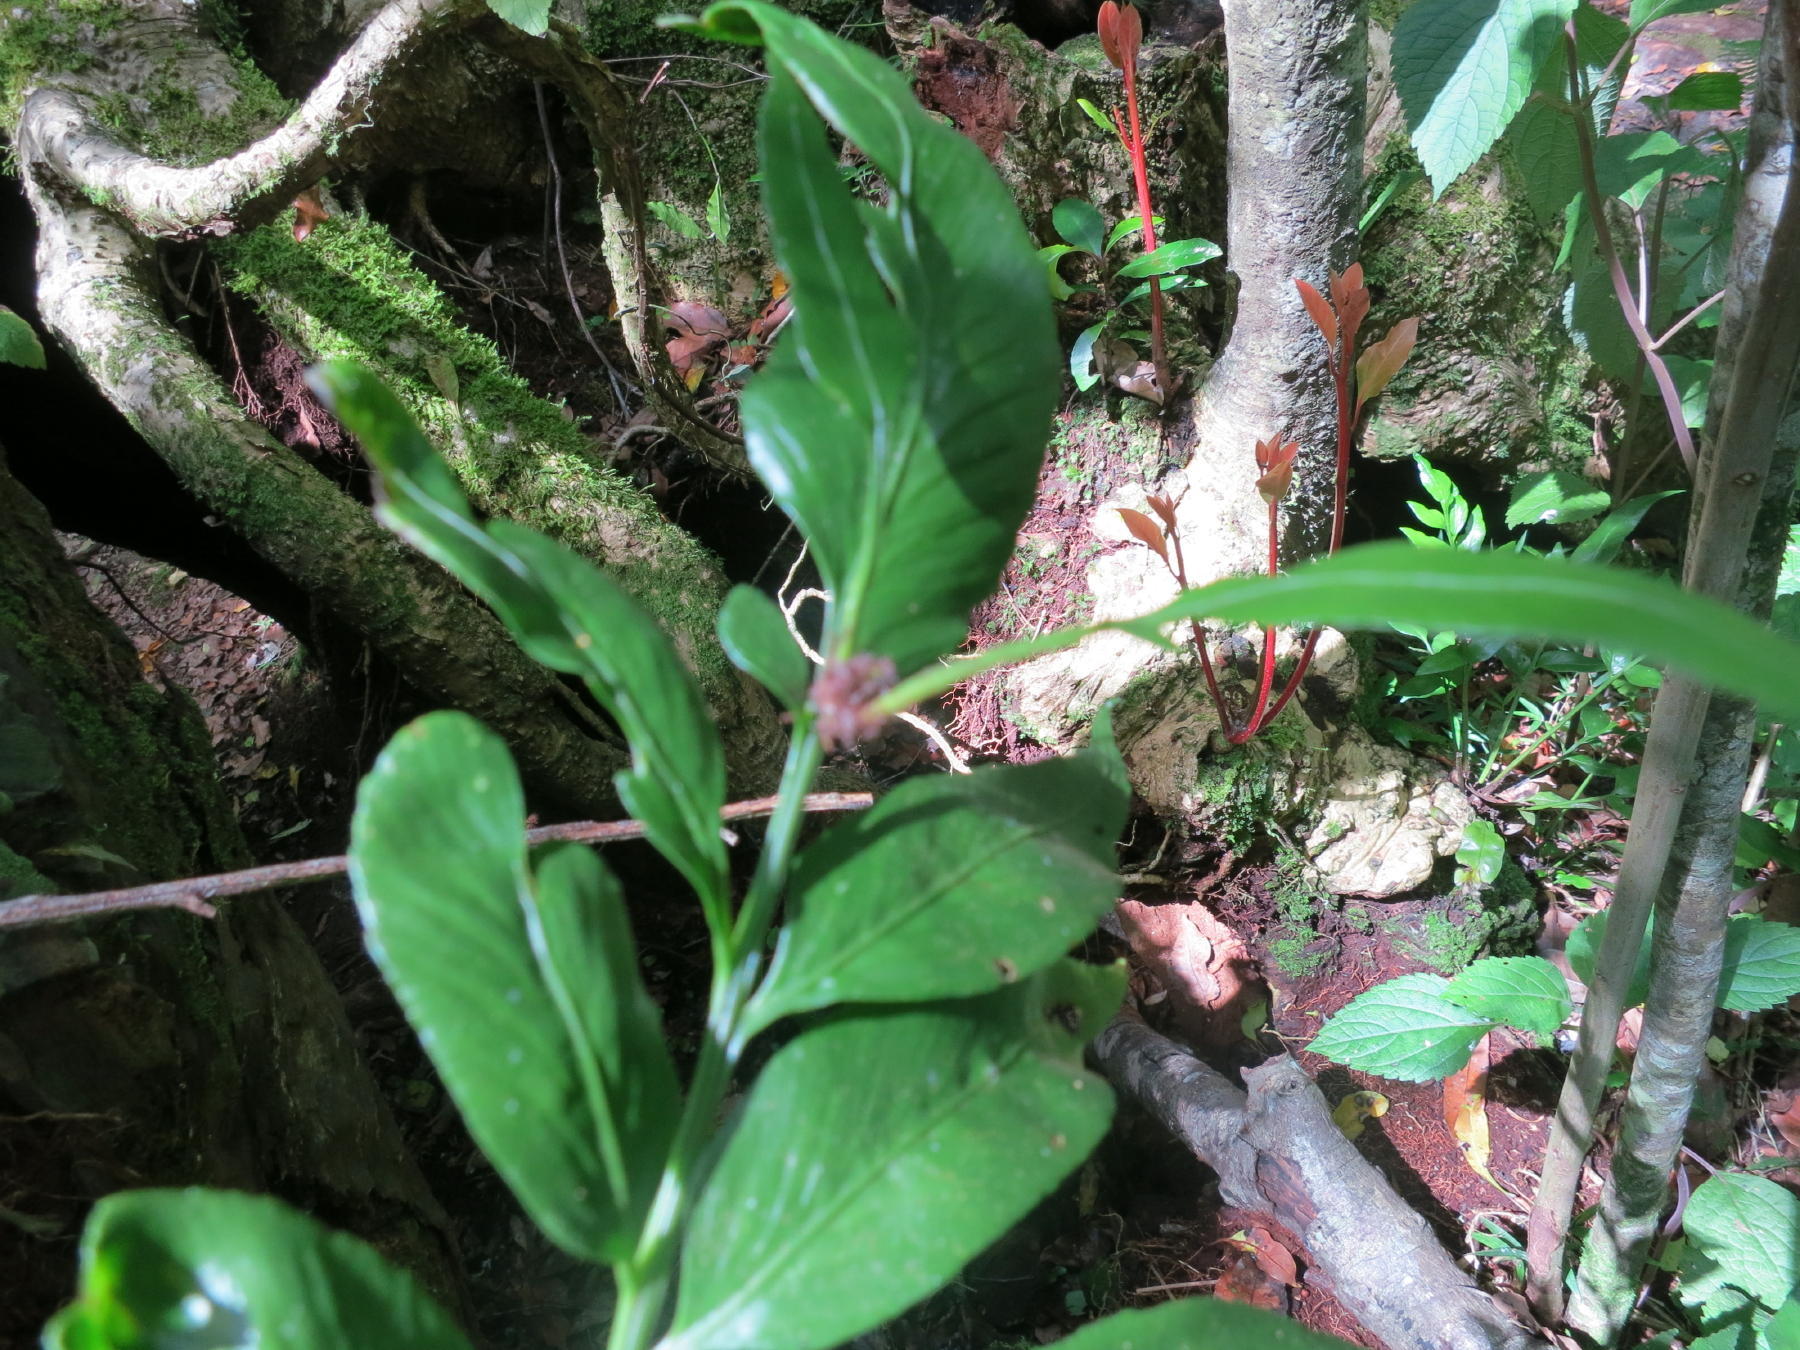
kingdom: Plantae
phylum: Tracheophyta
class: Polypodiopsida
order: Polypodiales
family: Aspleniaceae
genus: Asplenium
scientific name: Asplenium gemmiferum
